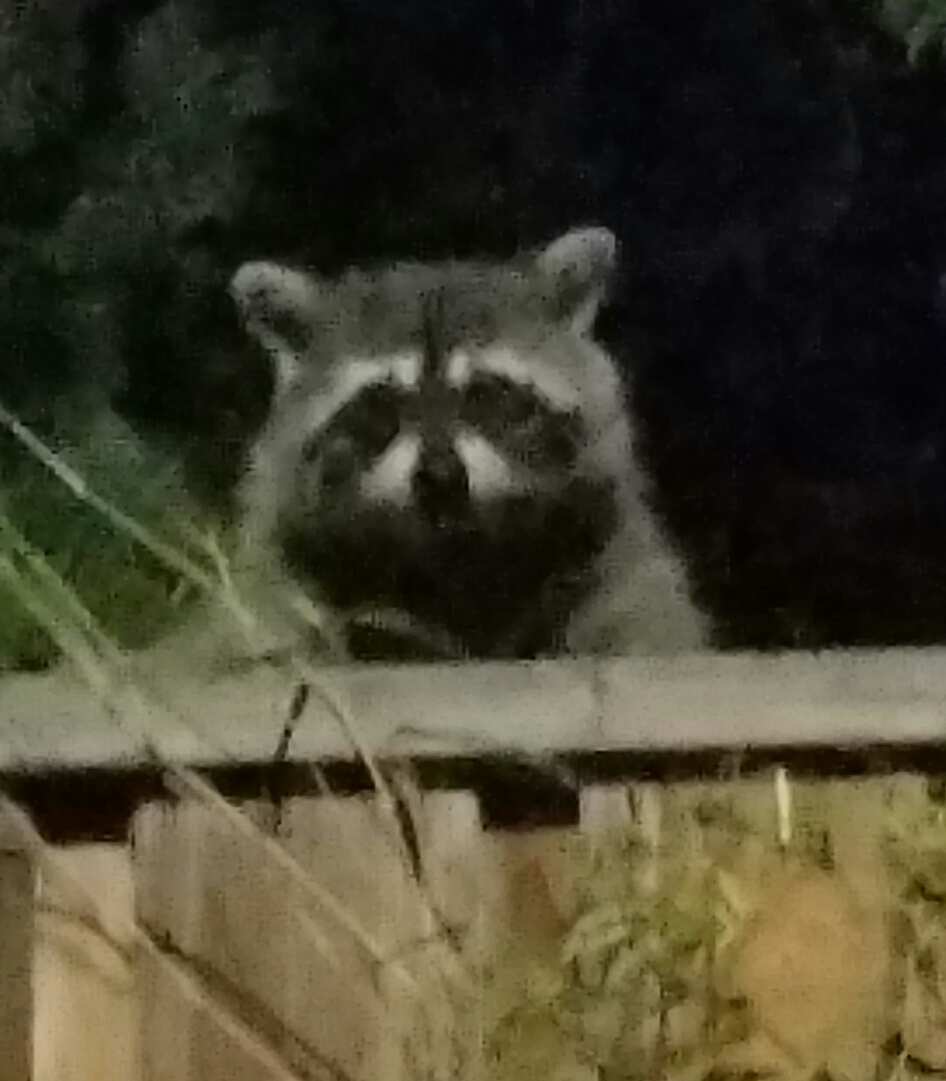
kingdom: Animalia
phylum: Chordata
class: Mammalia
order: Carnivora
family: Procyonidae
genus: Procyon
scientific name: Procyon lotor
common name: Raccoon
